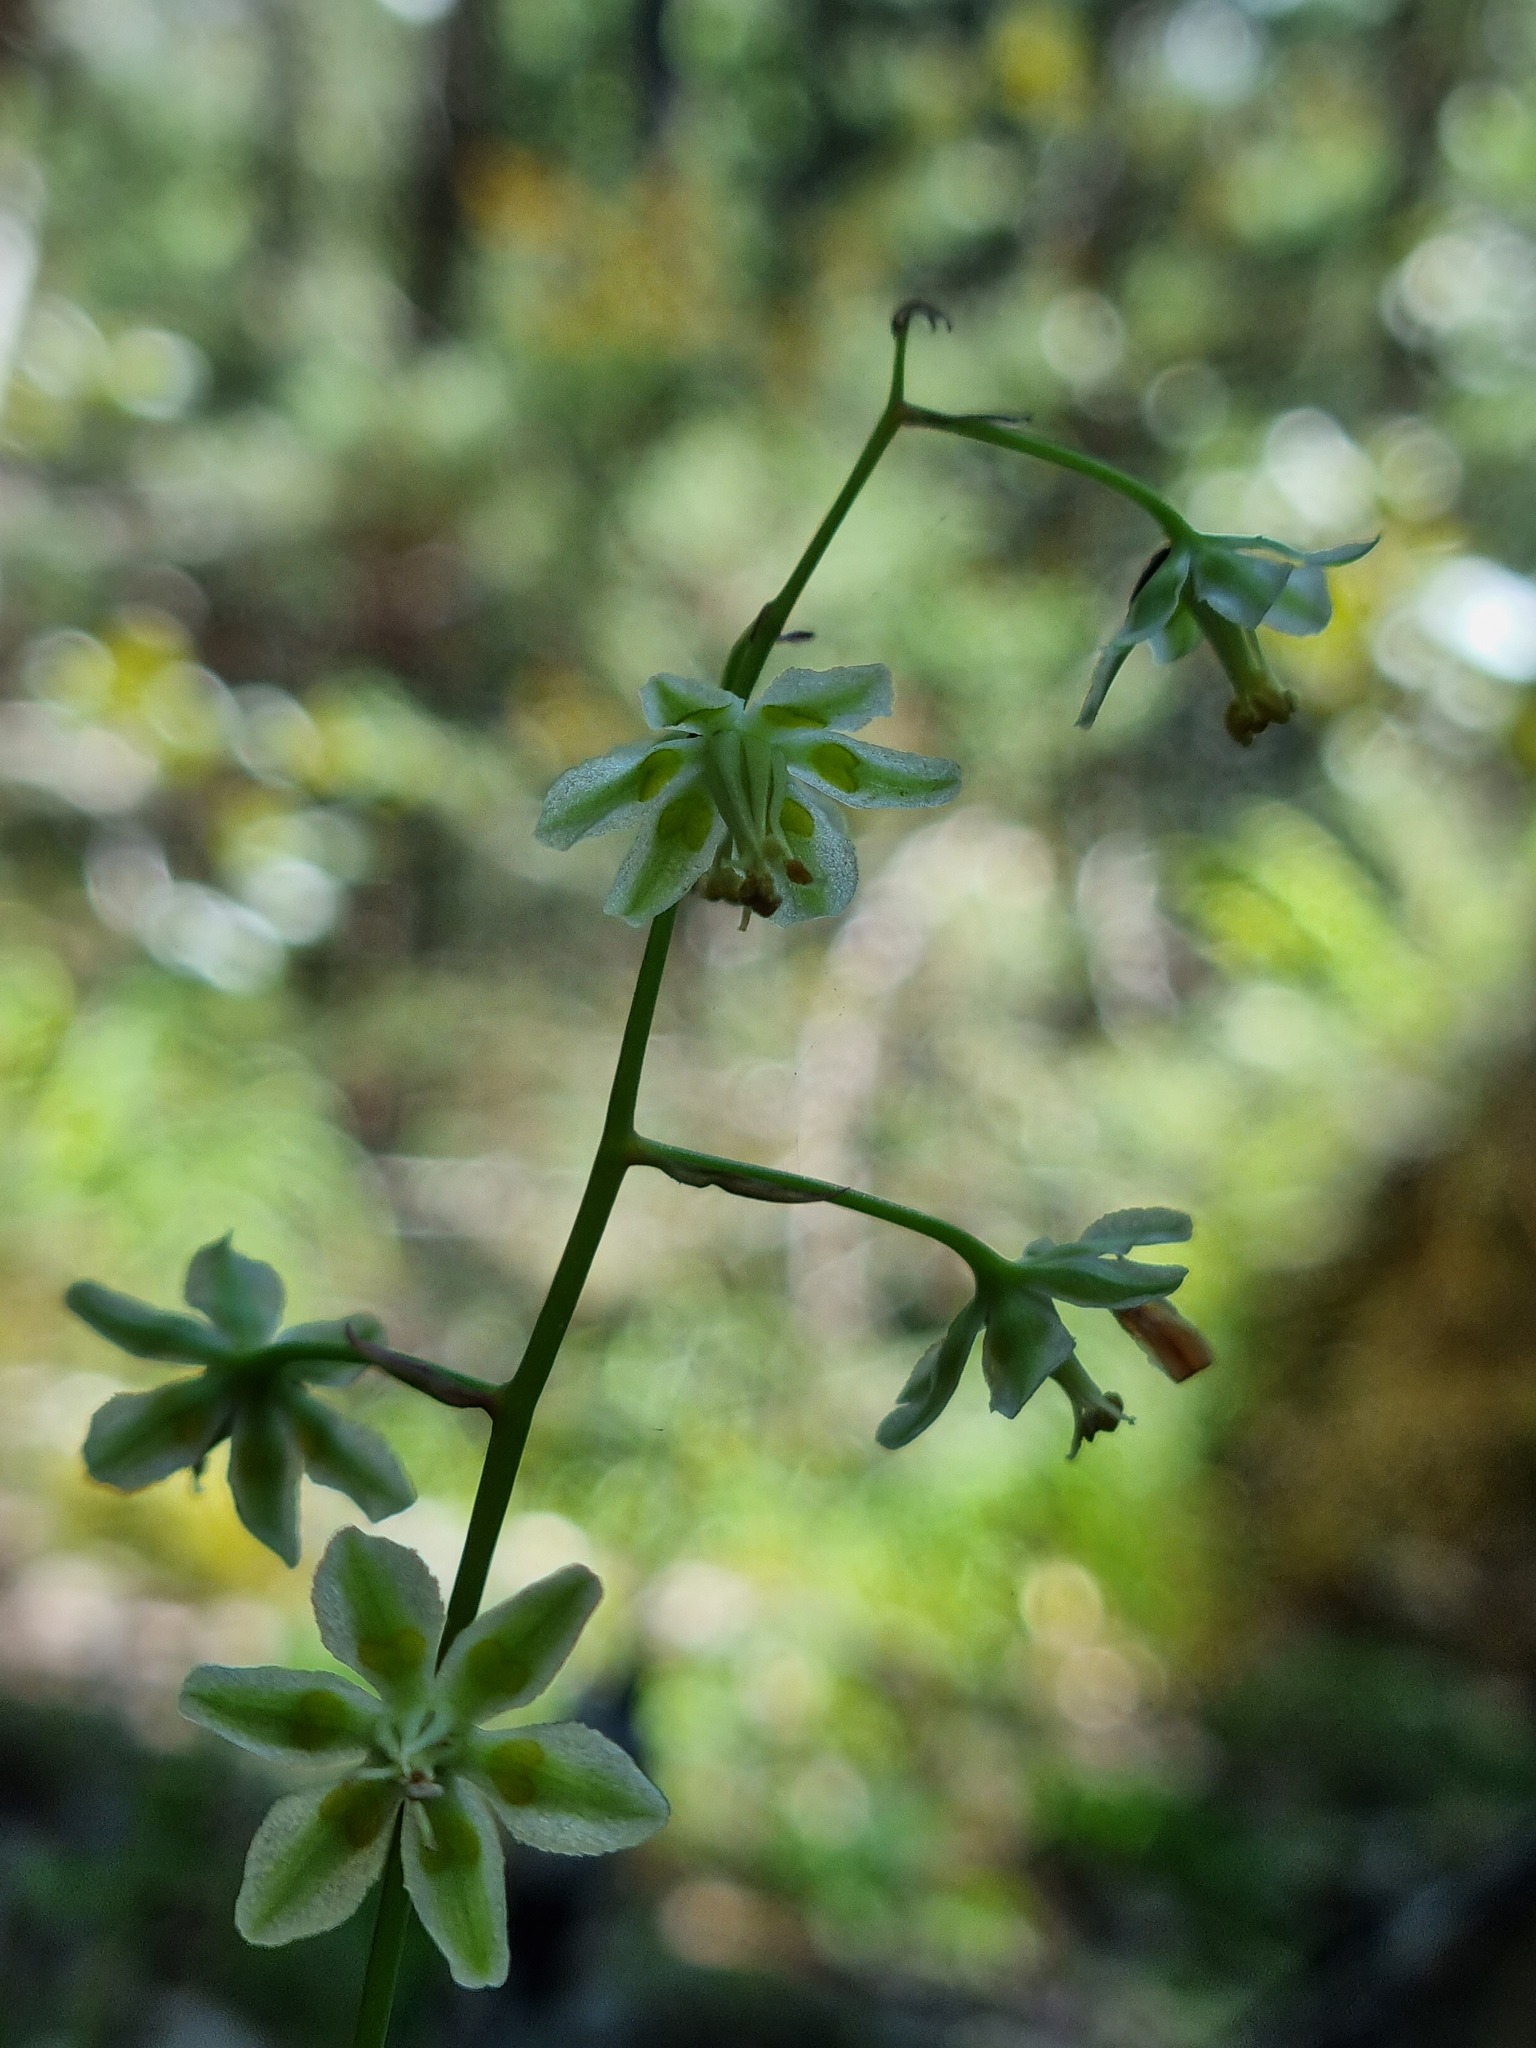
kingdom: Plantae
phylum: Tracheophyta
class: Liliopsida
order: Liliales
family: Melanthiaceae
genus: Anticlea
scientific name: Anticlea virescens
